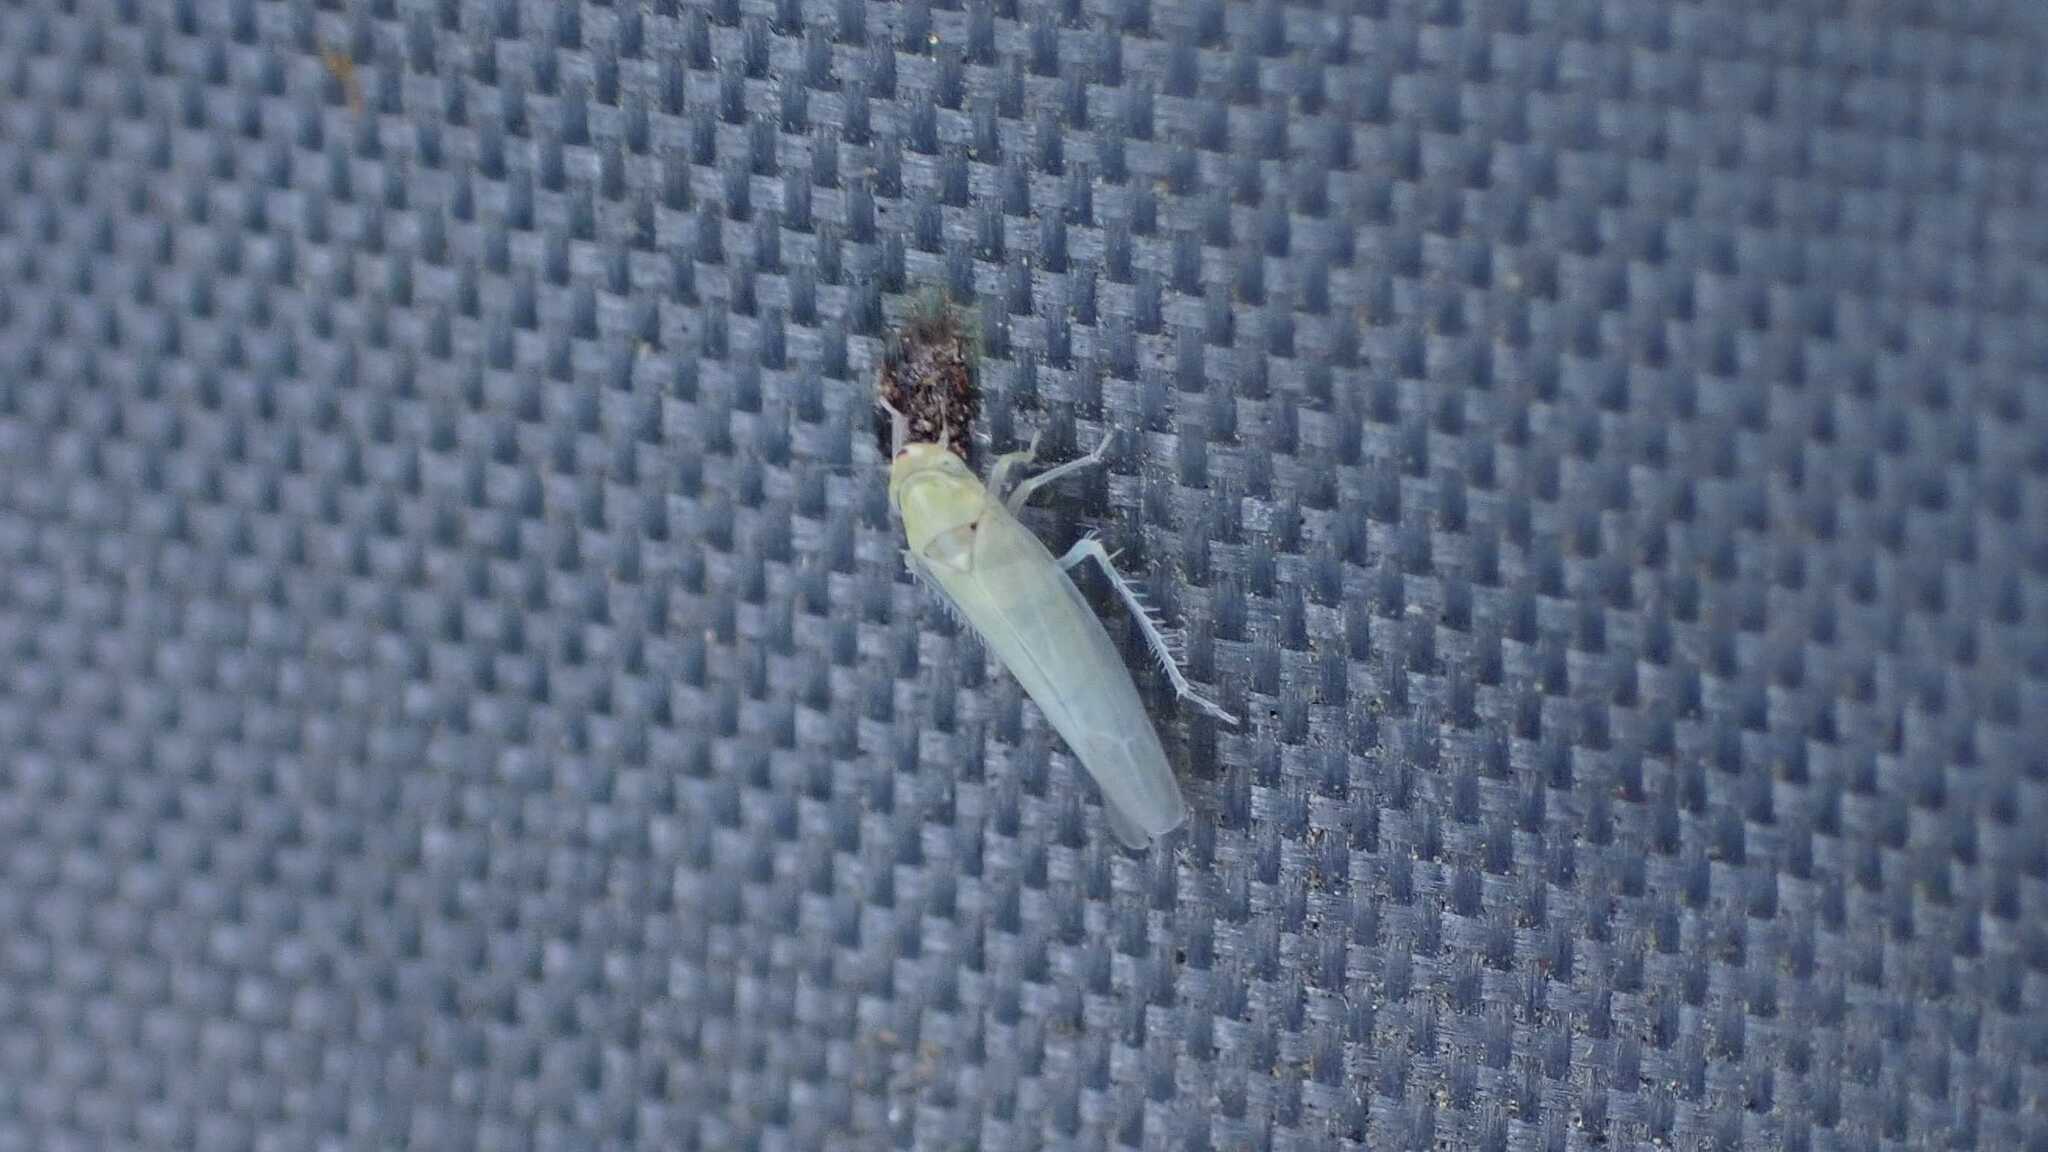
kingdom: Animalia
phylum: Arthropoda
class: Insecta
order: Hemiptera
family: Cicadellidae
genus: Zygina
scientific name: Zygina nivea
